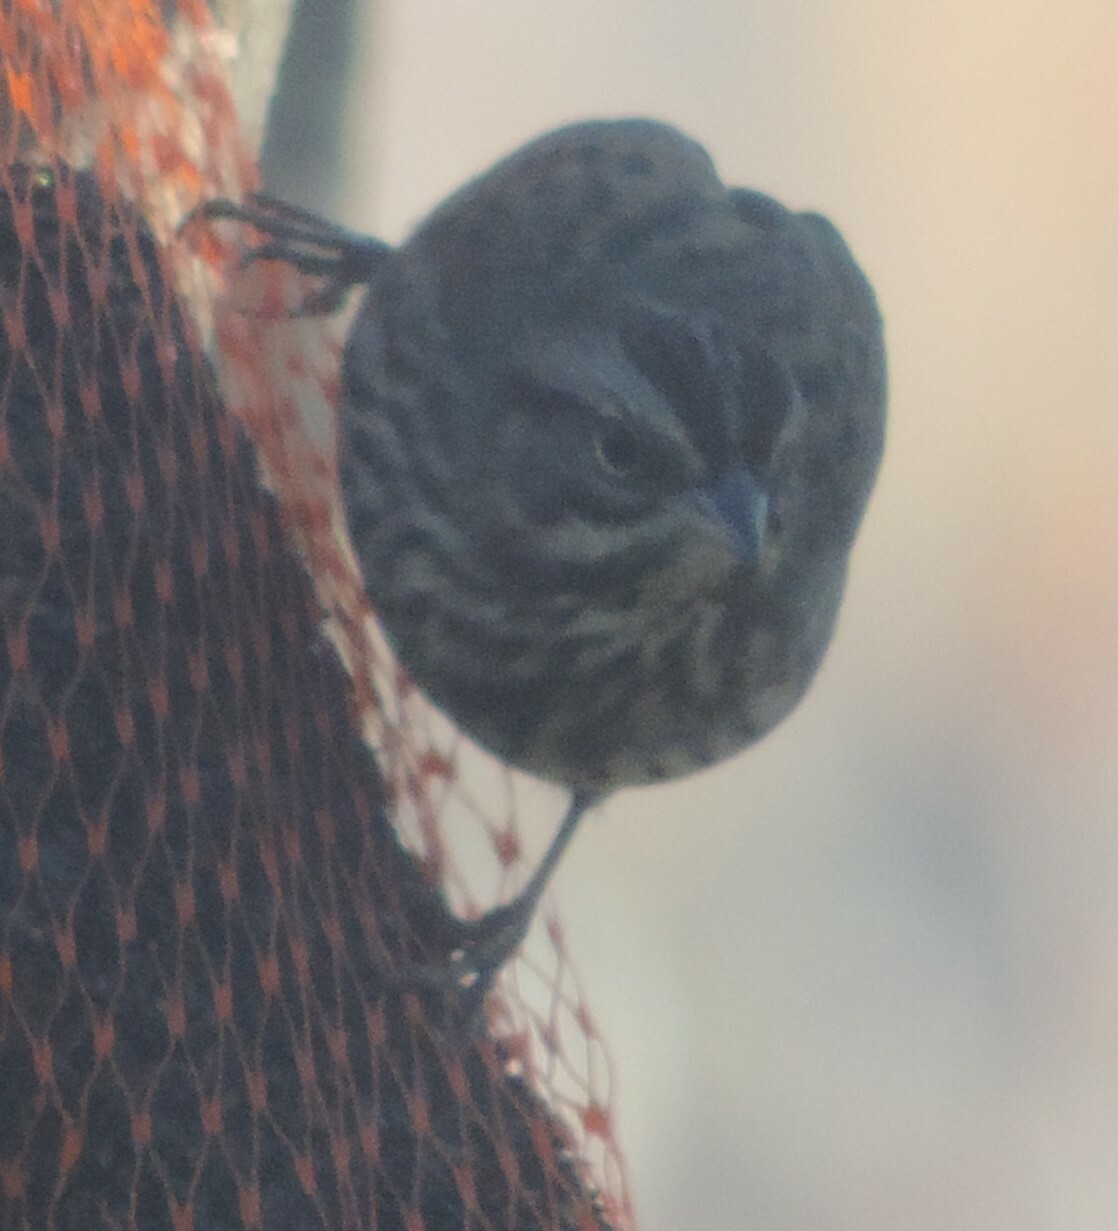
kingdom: Animalia
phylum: Chordata
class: Aves
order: Passeriformes
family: Passerellidae
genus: Melospiza
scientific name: Melospiza melodia
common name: Song sparrow
